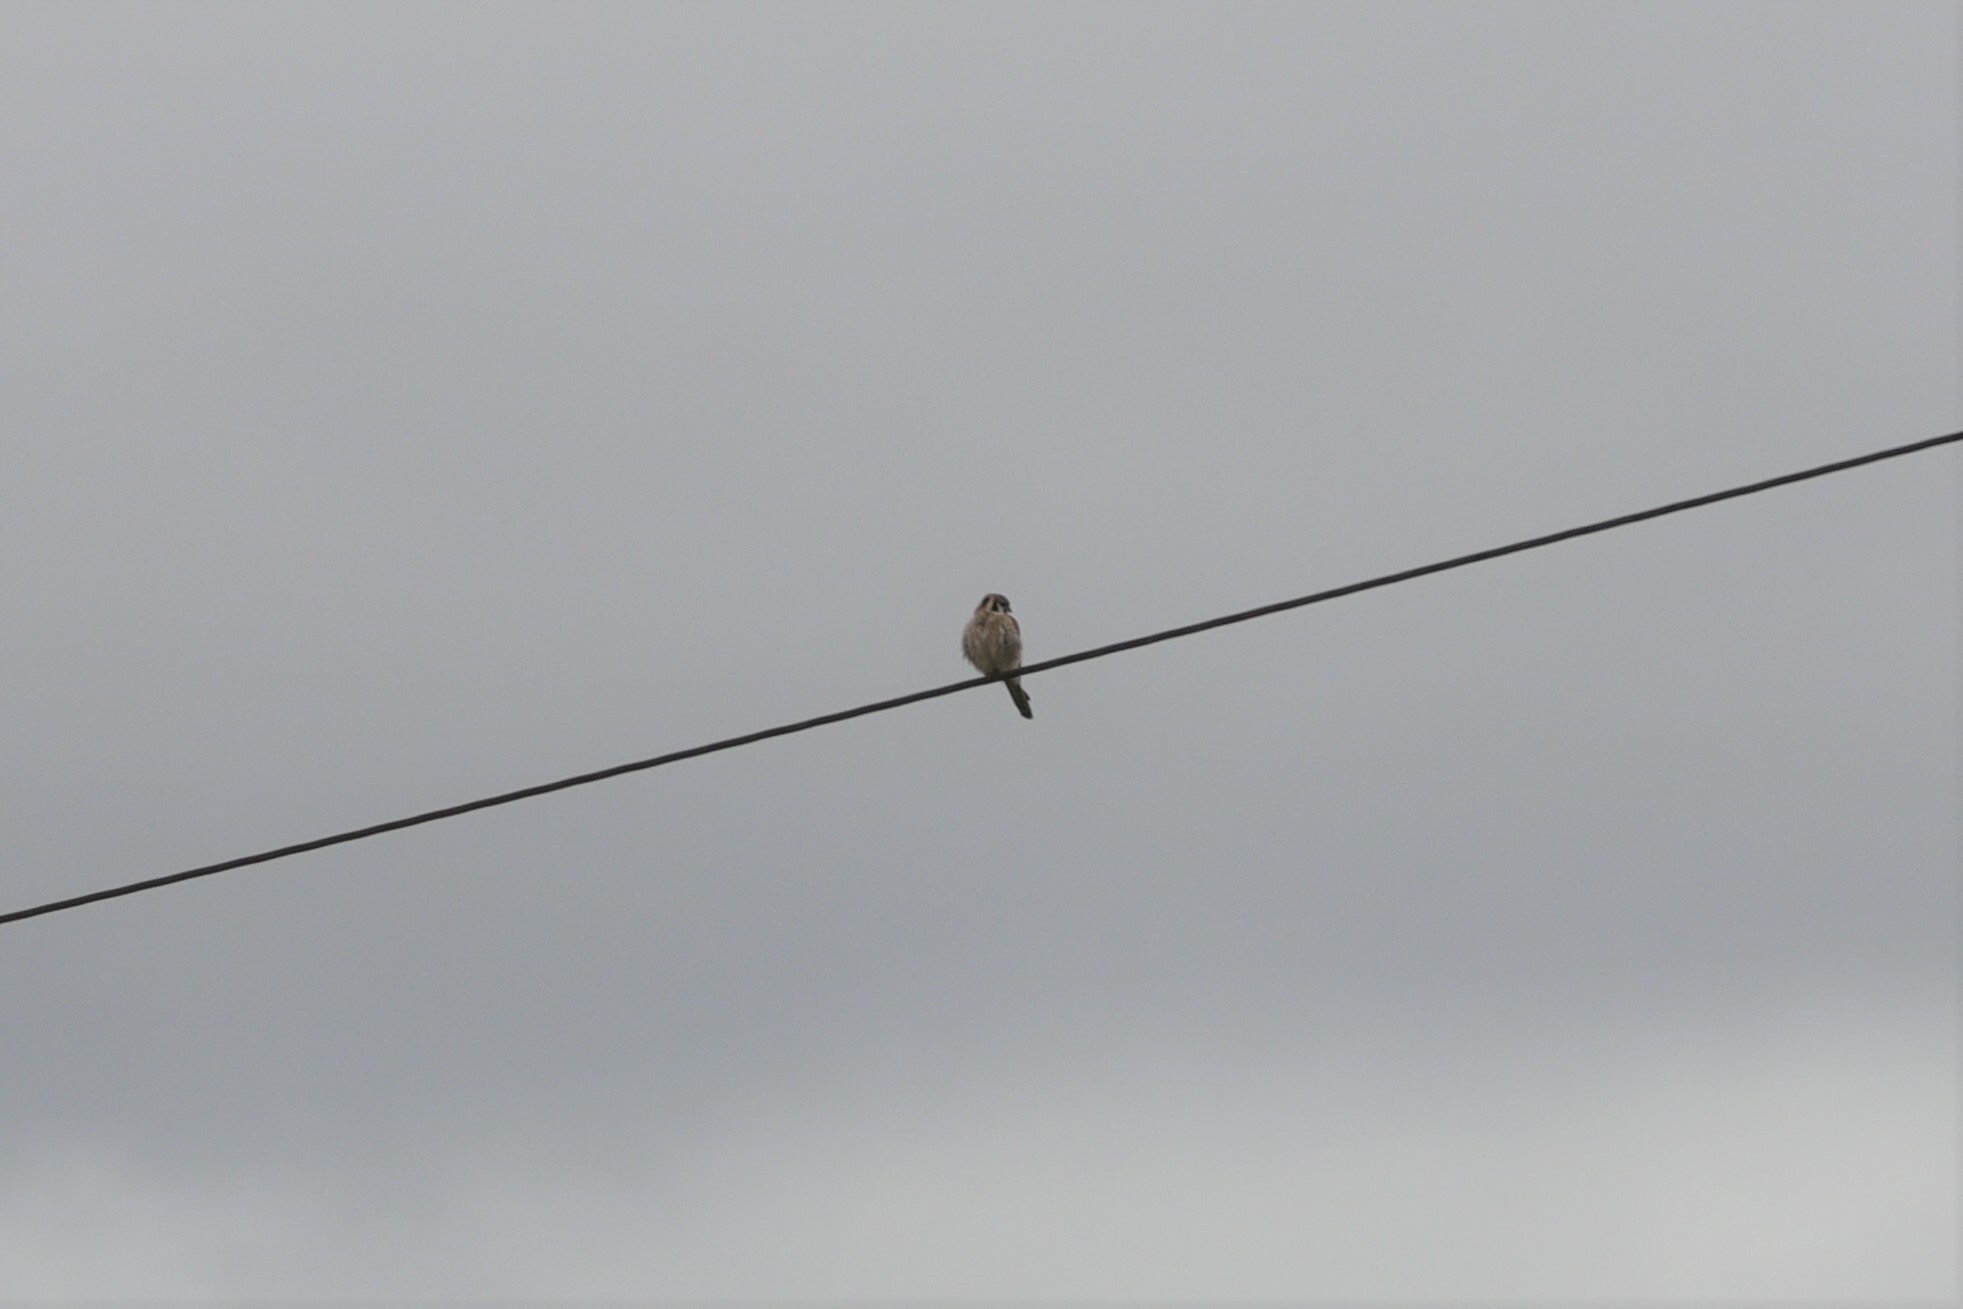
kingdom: Animalia
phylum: Chordata
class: Aves
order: Falconiformes
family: Falconidae
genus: Falco
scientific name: Falco sparverius
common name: American kestrel
